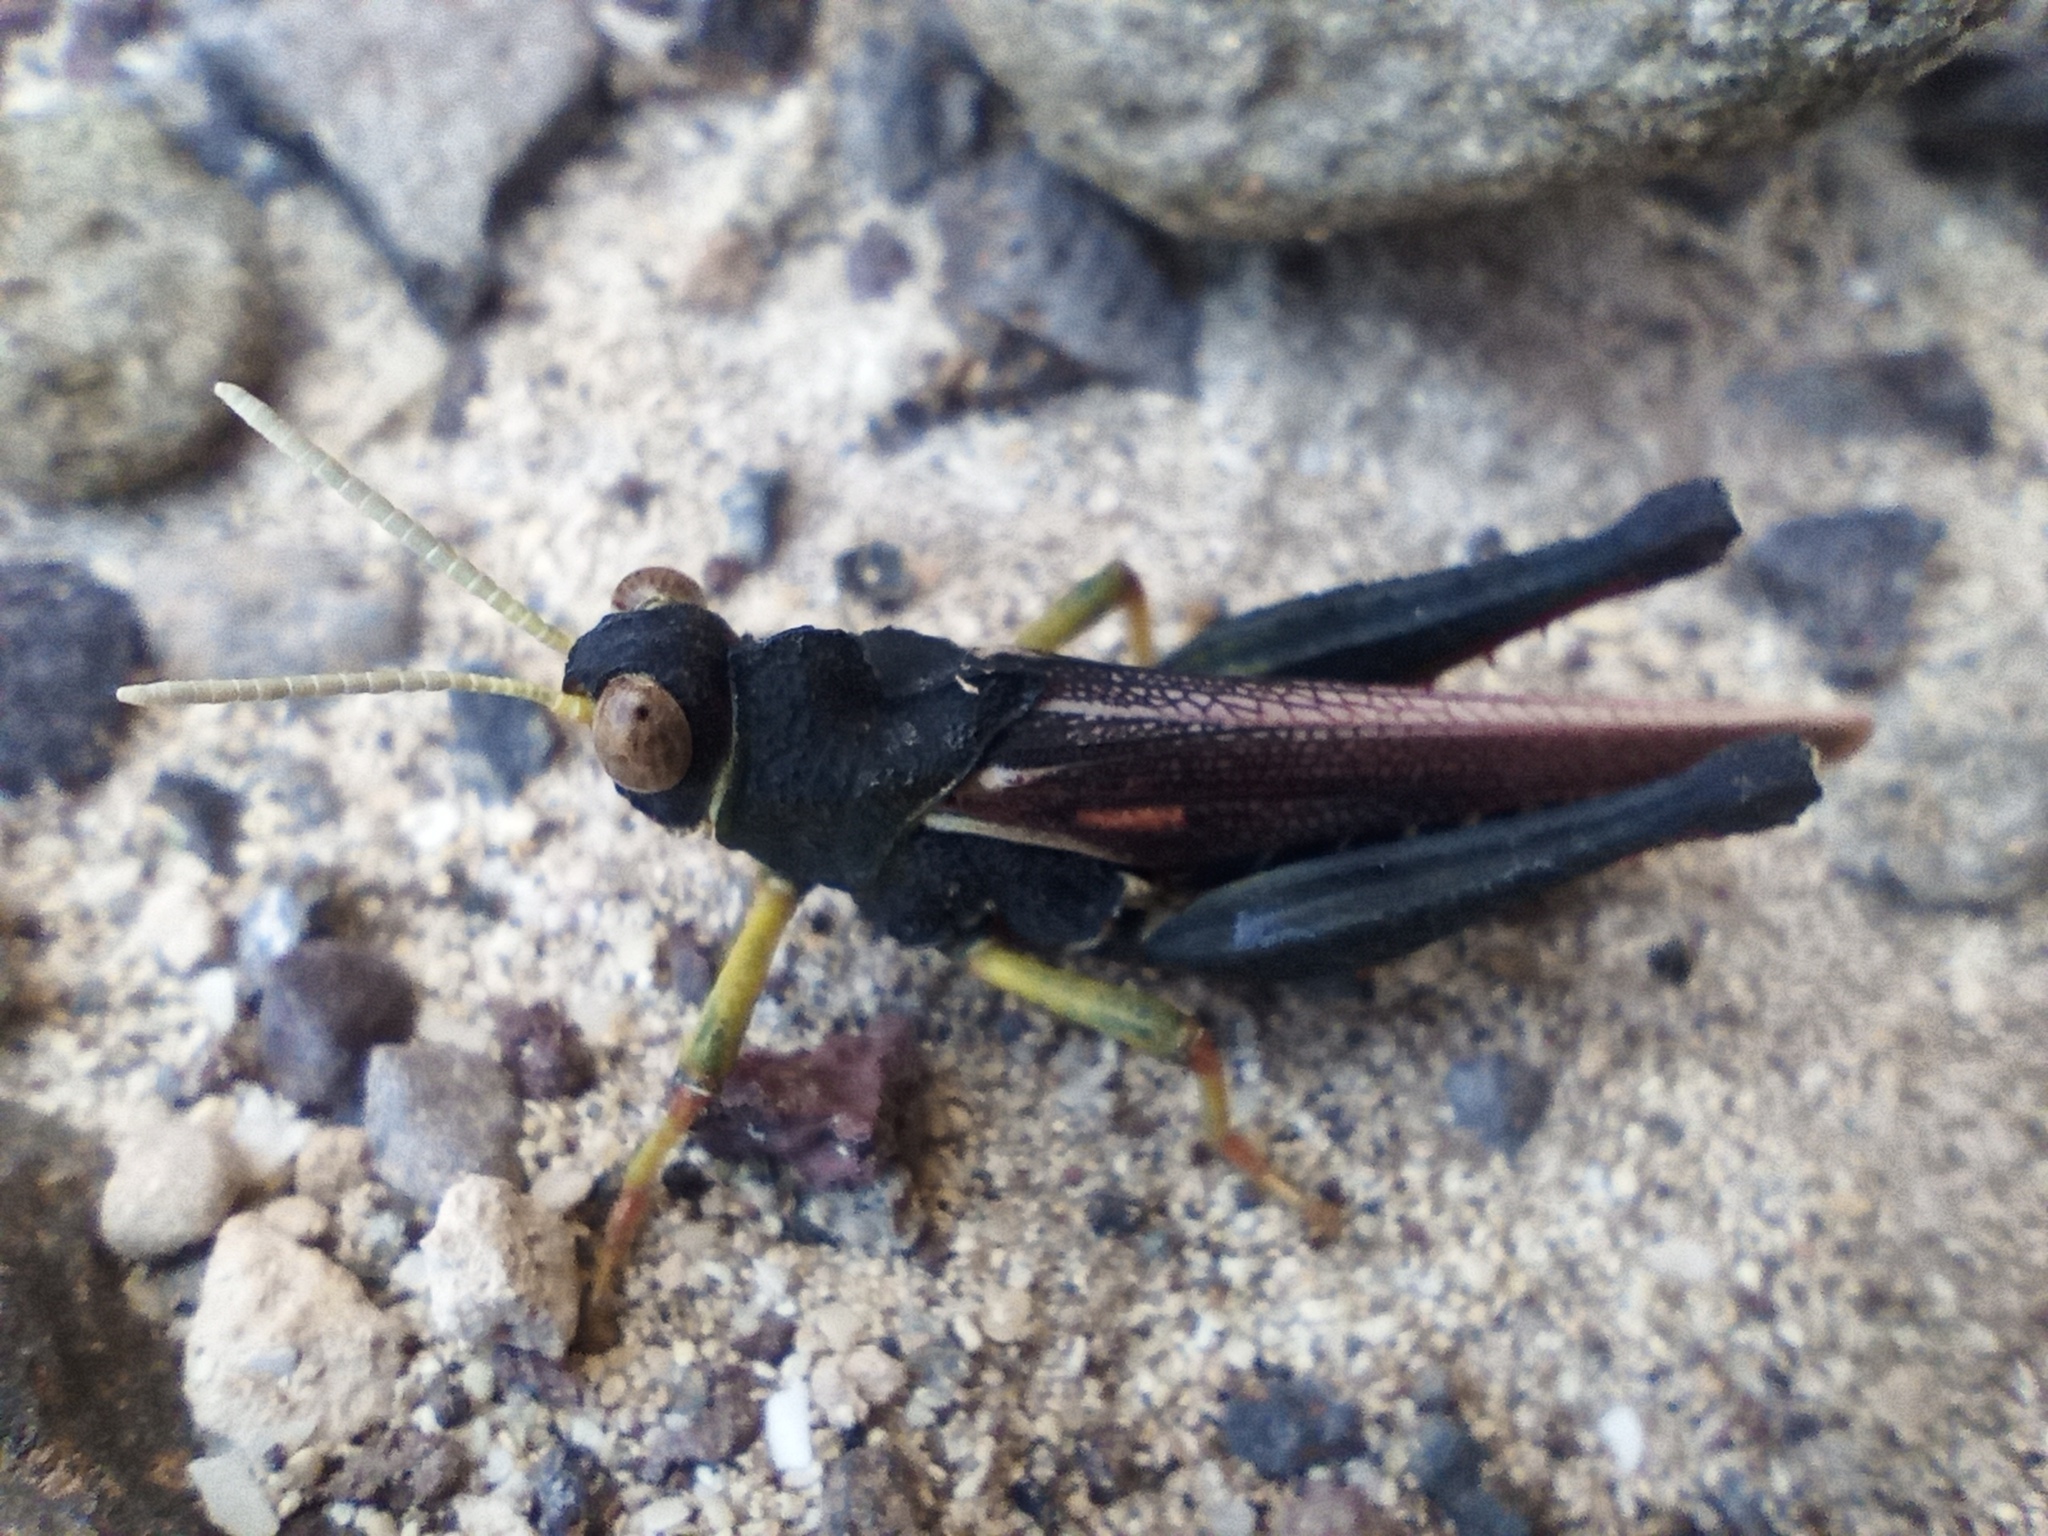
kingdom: Animalia
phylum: Arthropoda
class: Insecta
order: Orthoptera
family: Dericorythidae
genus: Dericorys
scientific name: Dericorys lobata
